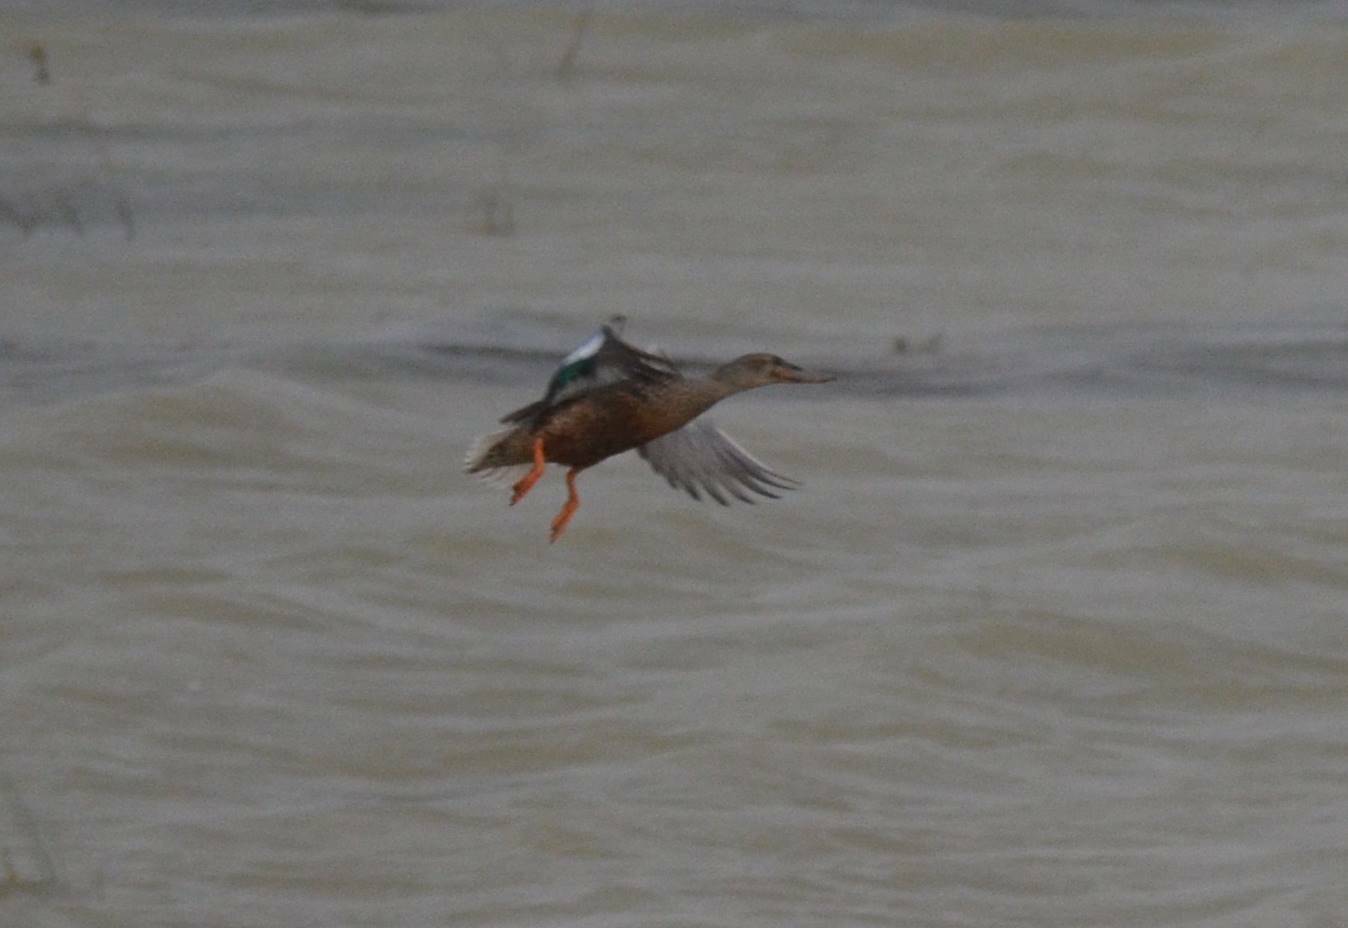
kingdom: Animalia
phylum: Chordata
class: Aves
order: Anseriformes
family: Anatidae
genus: Spatula
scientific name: Spatula clypeata
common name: Northern shoveler
